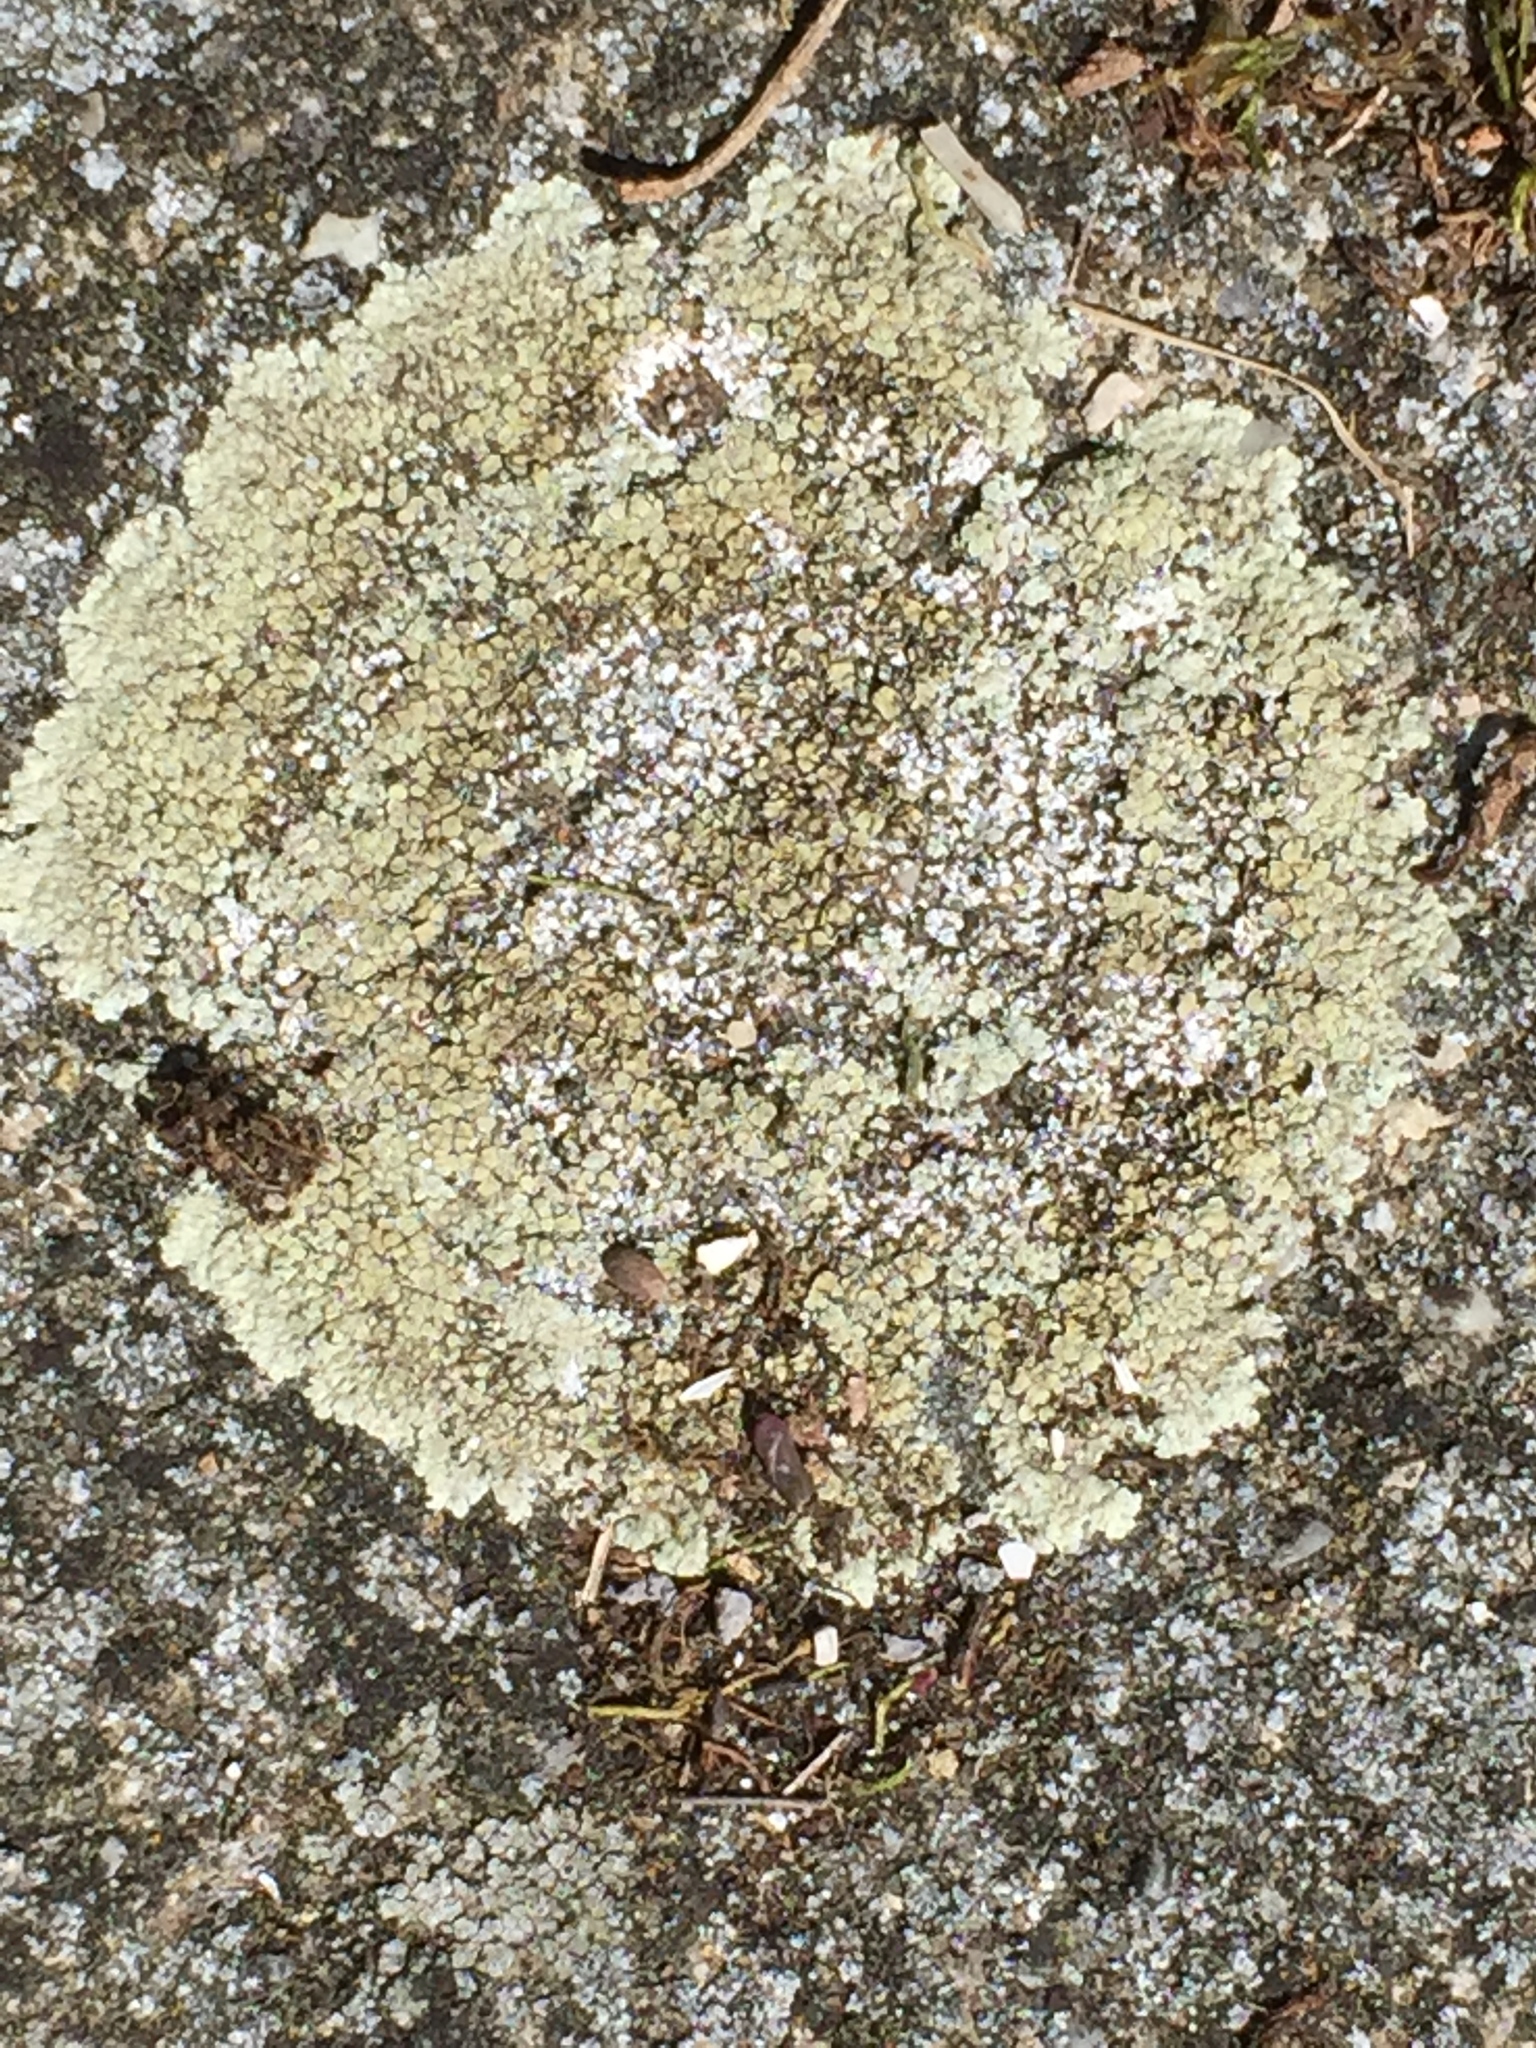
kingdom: Fungi
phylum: Ascomycota
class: Lecanoromycetes
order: Lecanorales
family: Lecanoraceae
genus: Protoparmeliopsis
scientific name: Protoparmeliopsis muralis
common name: Stonewall rim lichen
